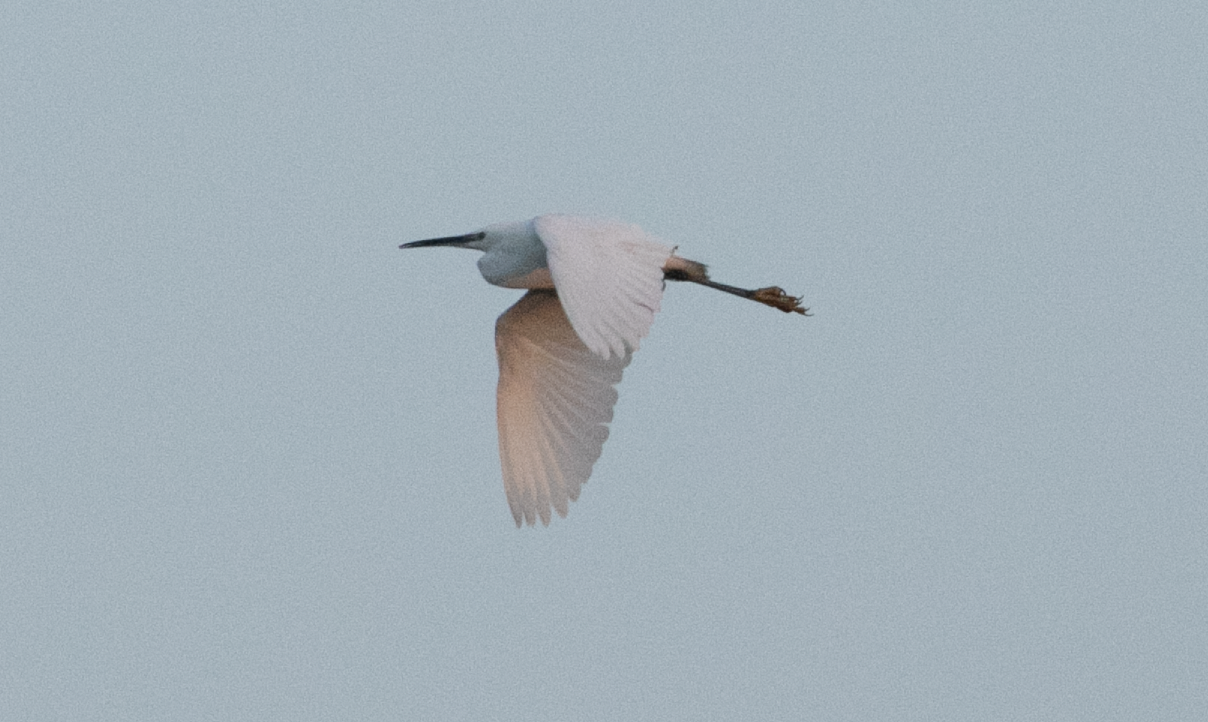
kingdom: Animalia
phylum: Chordata
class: Aves
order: Pelecaniformes
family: Ardeidae
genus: Egretta
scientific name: Egretta garzetta
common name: Little egret
